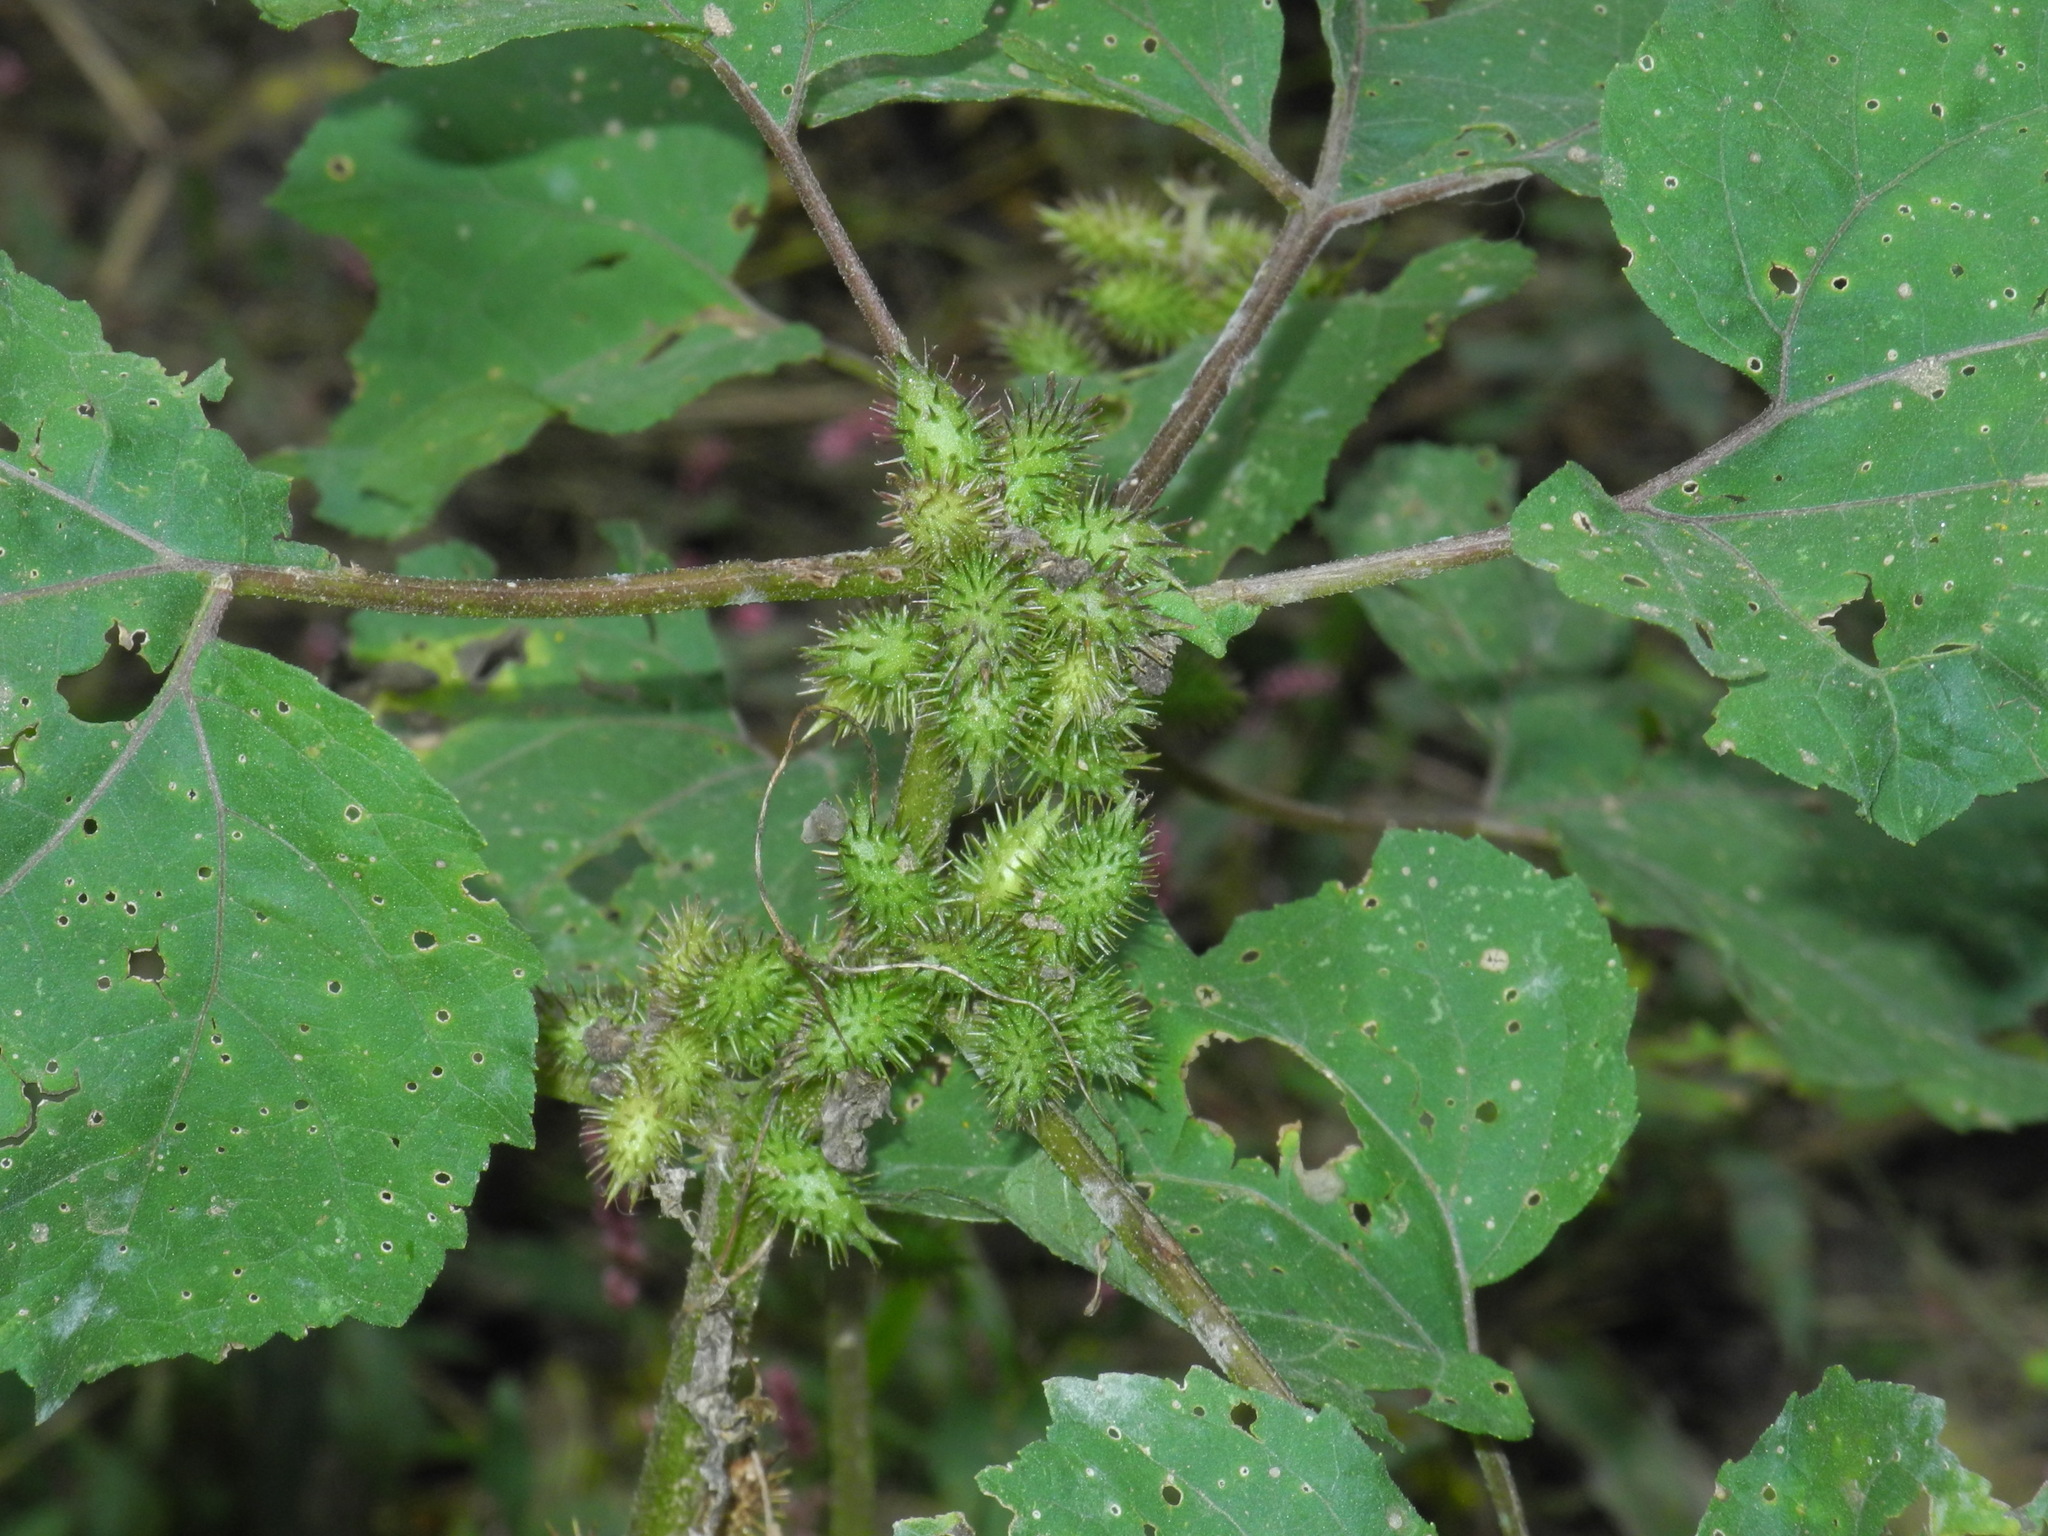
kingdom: Plantae
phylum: Tracheophyta
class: Magnoliopsida
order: Asterales
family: Asteraceae
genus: Xanthium
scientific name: Xanthium strumarium
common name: Rough cocklebur
